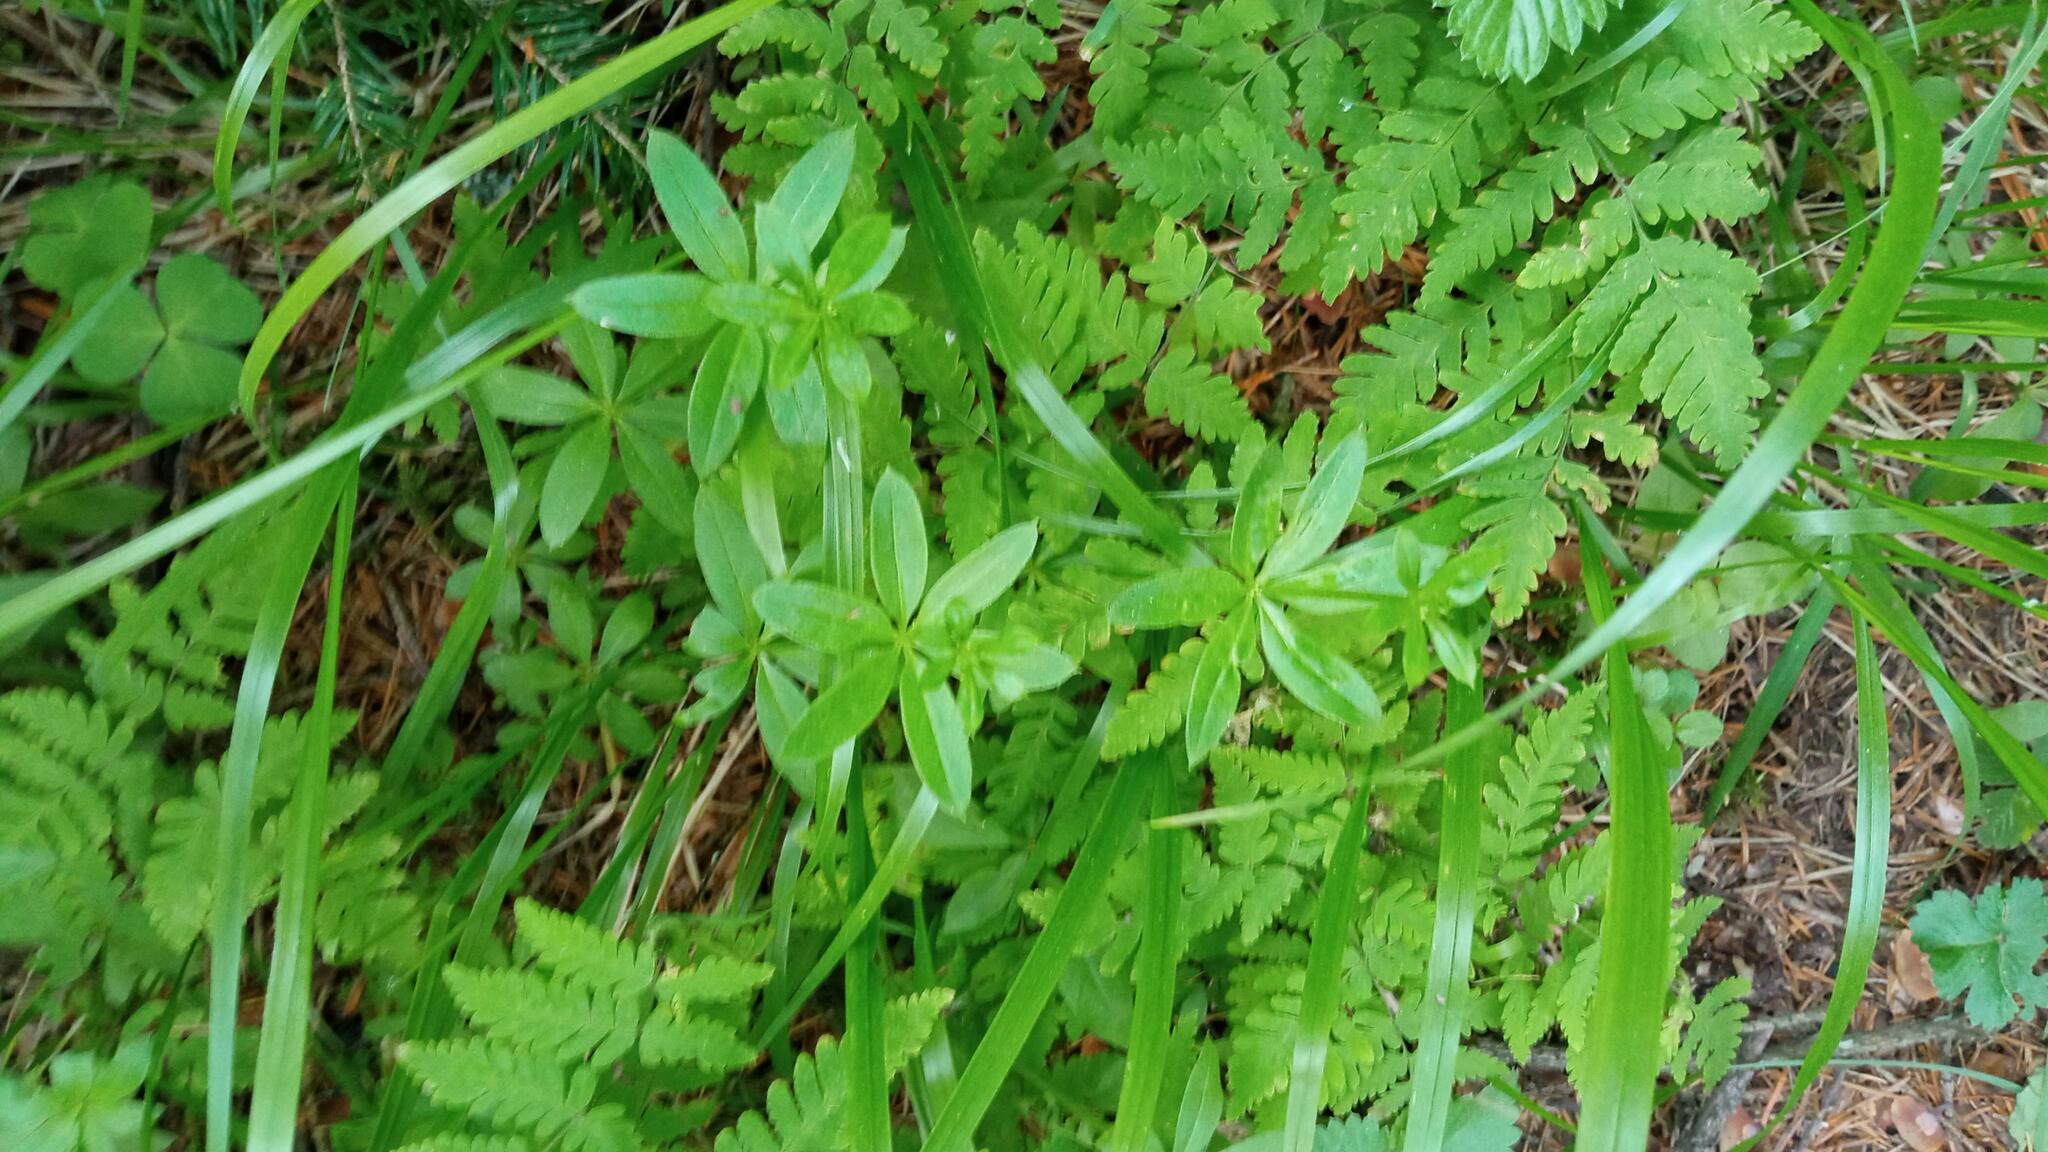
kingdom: Plantae
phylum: Tracheophyta
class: Magnoliopsida
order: Gentianales
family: Rubiaceae
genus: Galium
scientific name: Galium triflorum
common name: Fragrant bedstraw
